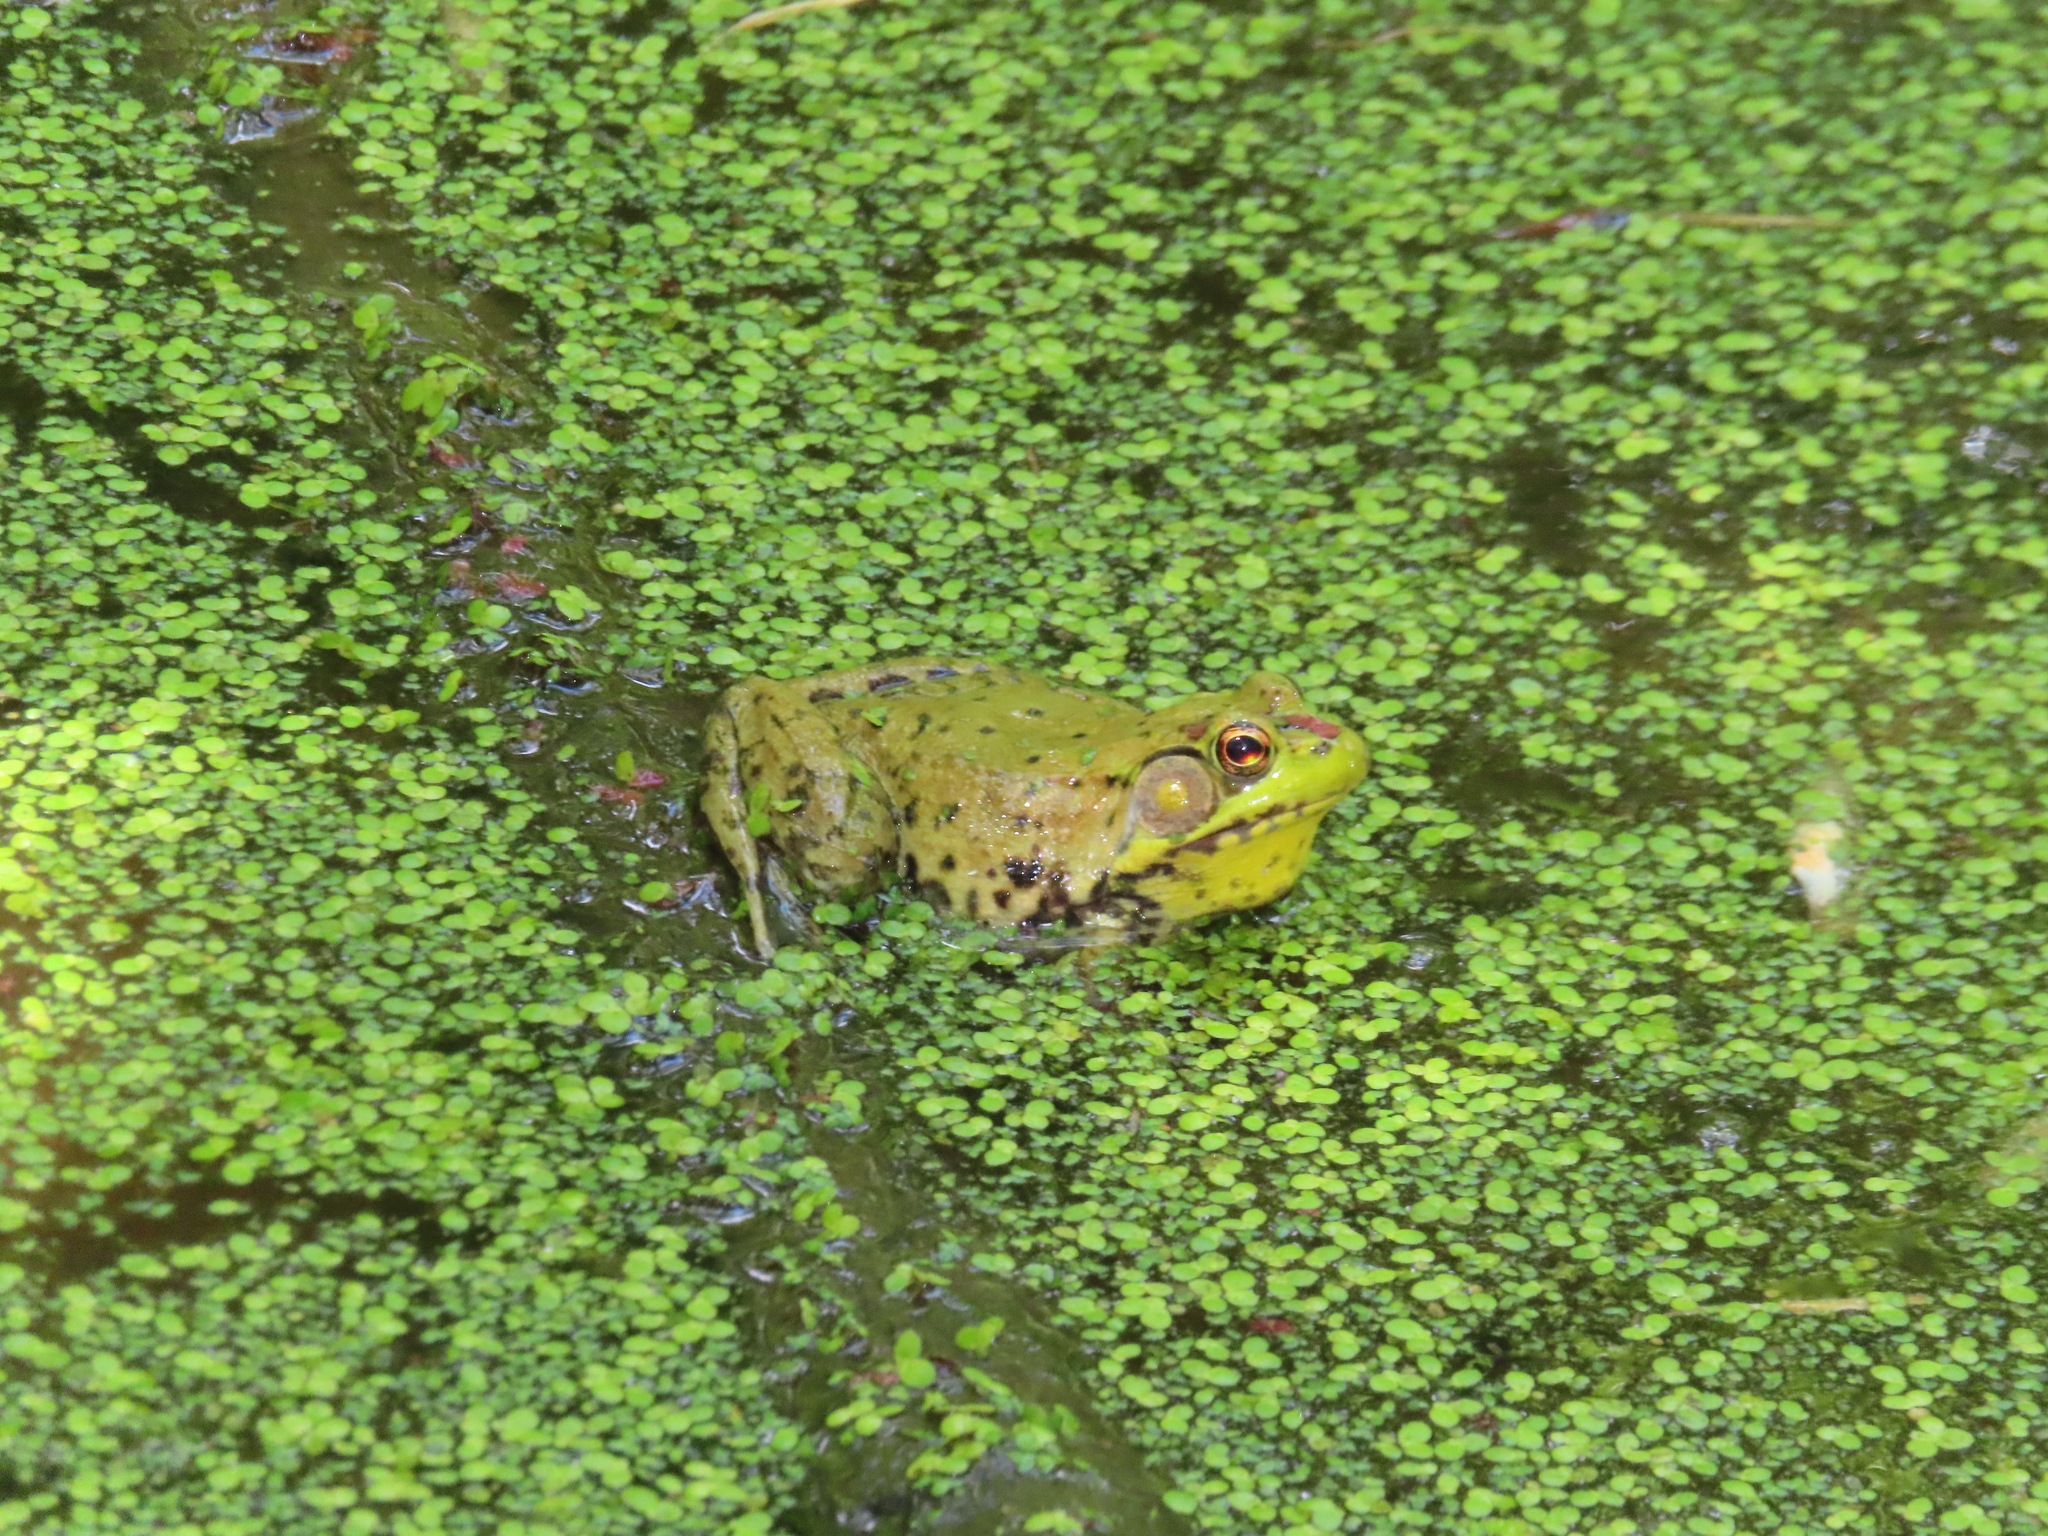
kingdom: Animalia
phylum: Chordata
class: Amphibia
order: Anura
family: Ranidae
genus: Lithobates
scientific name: Lithobates clamitans
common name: Green frog
